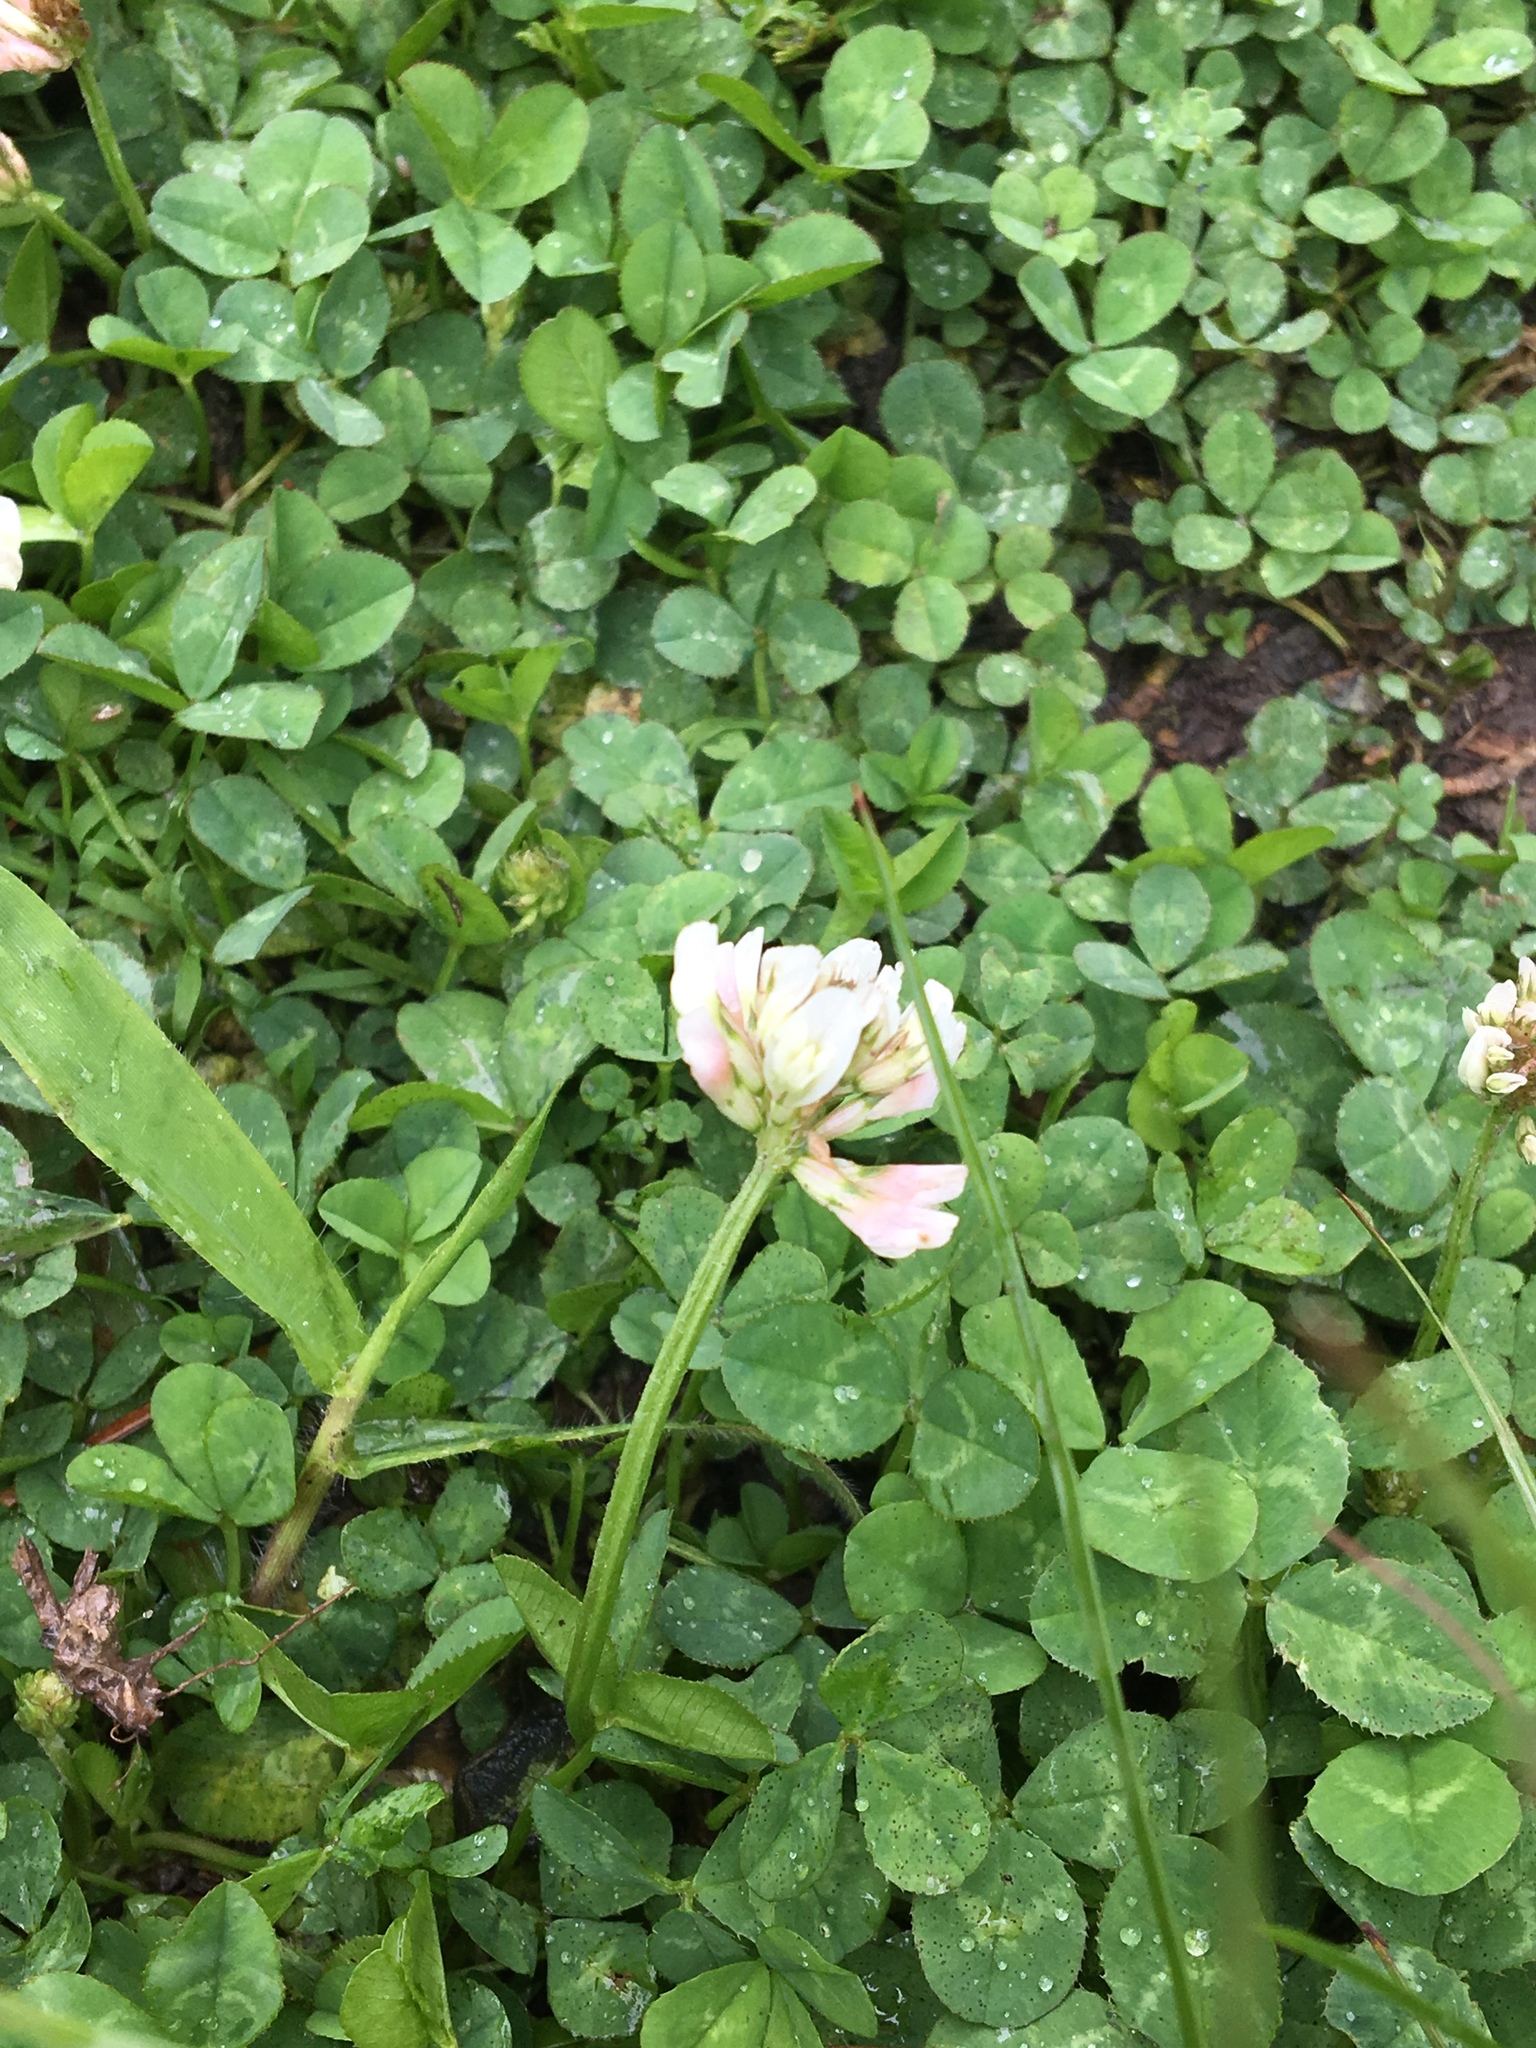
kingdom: Plantae
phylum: Tracheophyta
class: Magnoliopsida
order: Fabales
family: Fabaceae
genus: Trifolium
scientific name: Trifolium repens
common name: White clover
